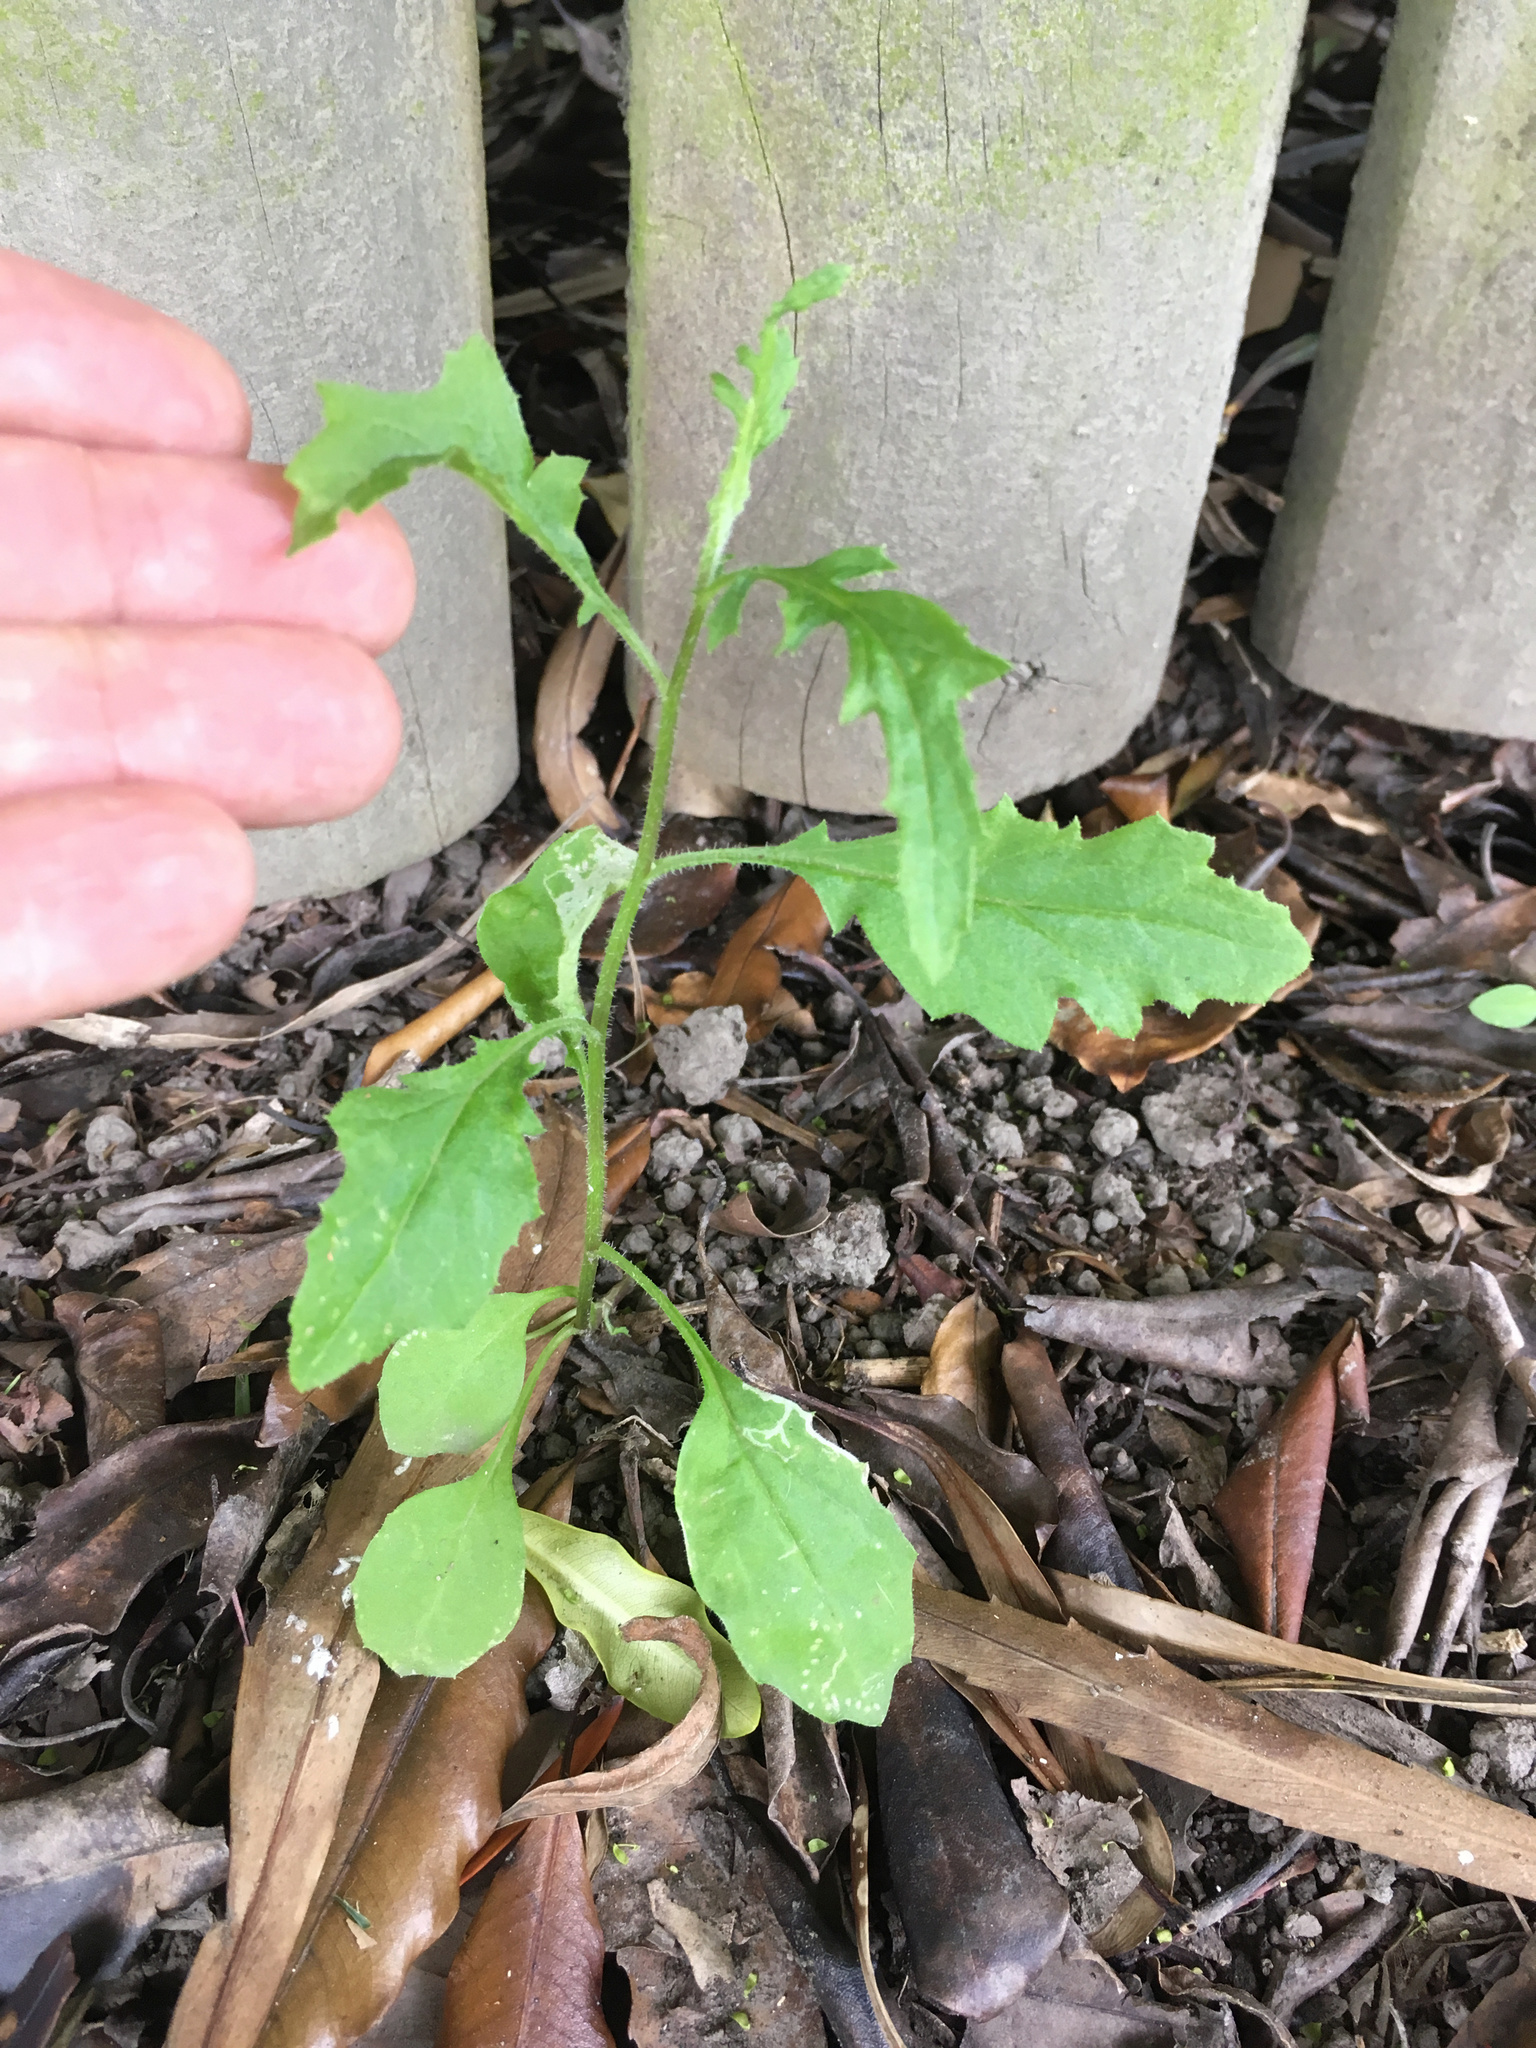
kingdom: Plantae
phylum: Tracheophyta
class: Magnoliopsida
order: Asterales
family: Asteraceae
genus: Senecio
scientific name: Senecio glomeratus
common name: Cutleaf burnweed
